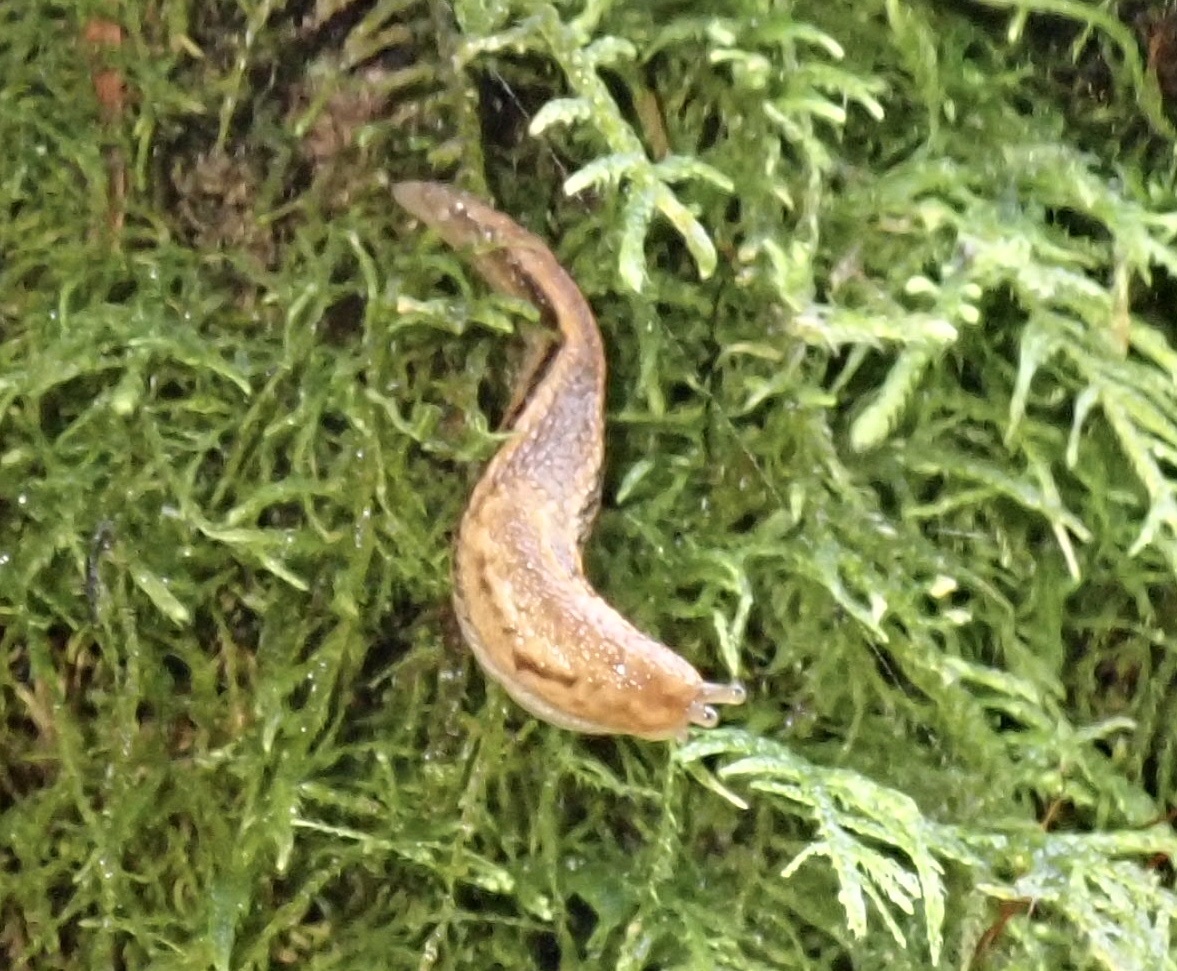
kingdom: Animalia
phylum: Mollusca
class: Gastropoda
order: Stylommatophora
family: Ariolimacidae
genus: Prophysaon
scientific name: Prophysaon vanattae
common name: Scarletback taildropper
